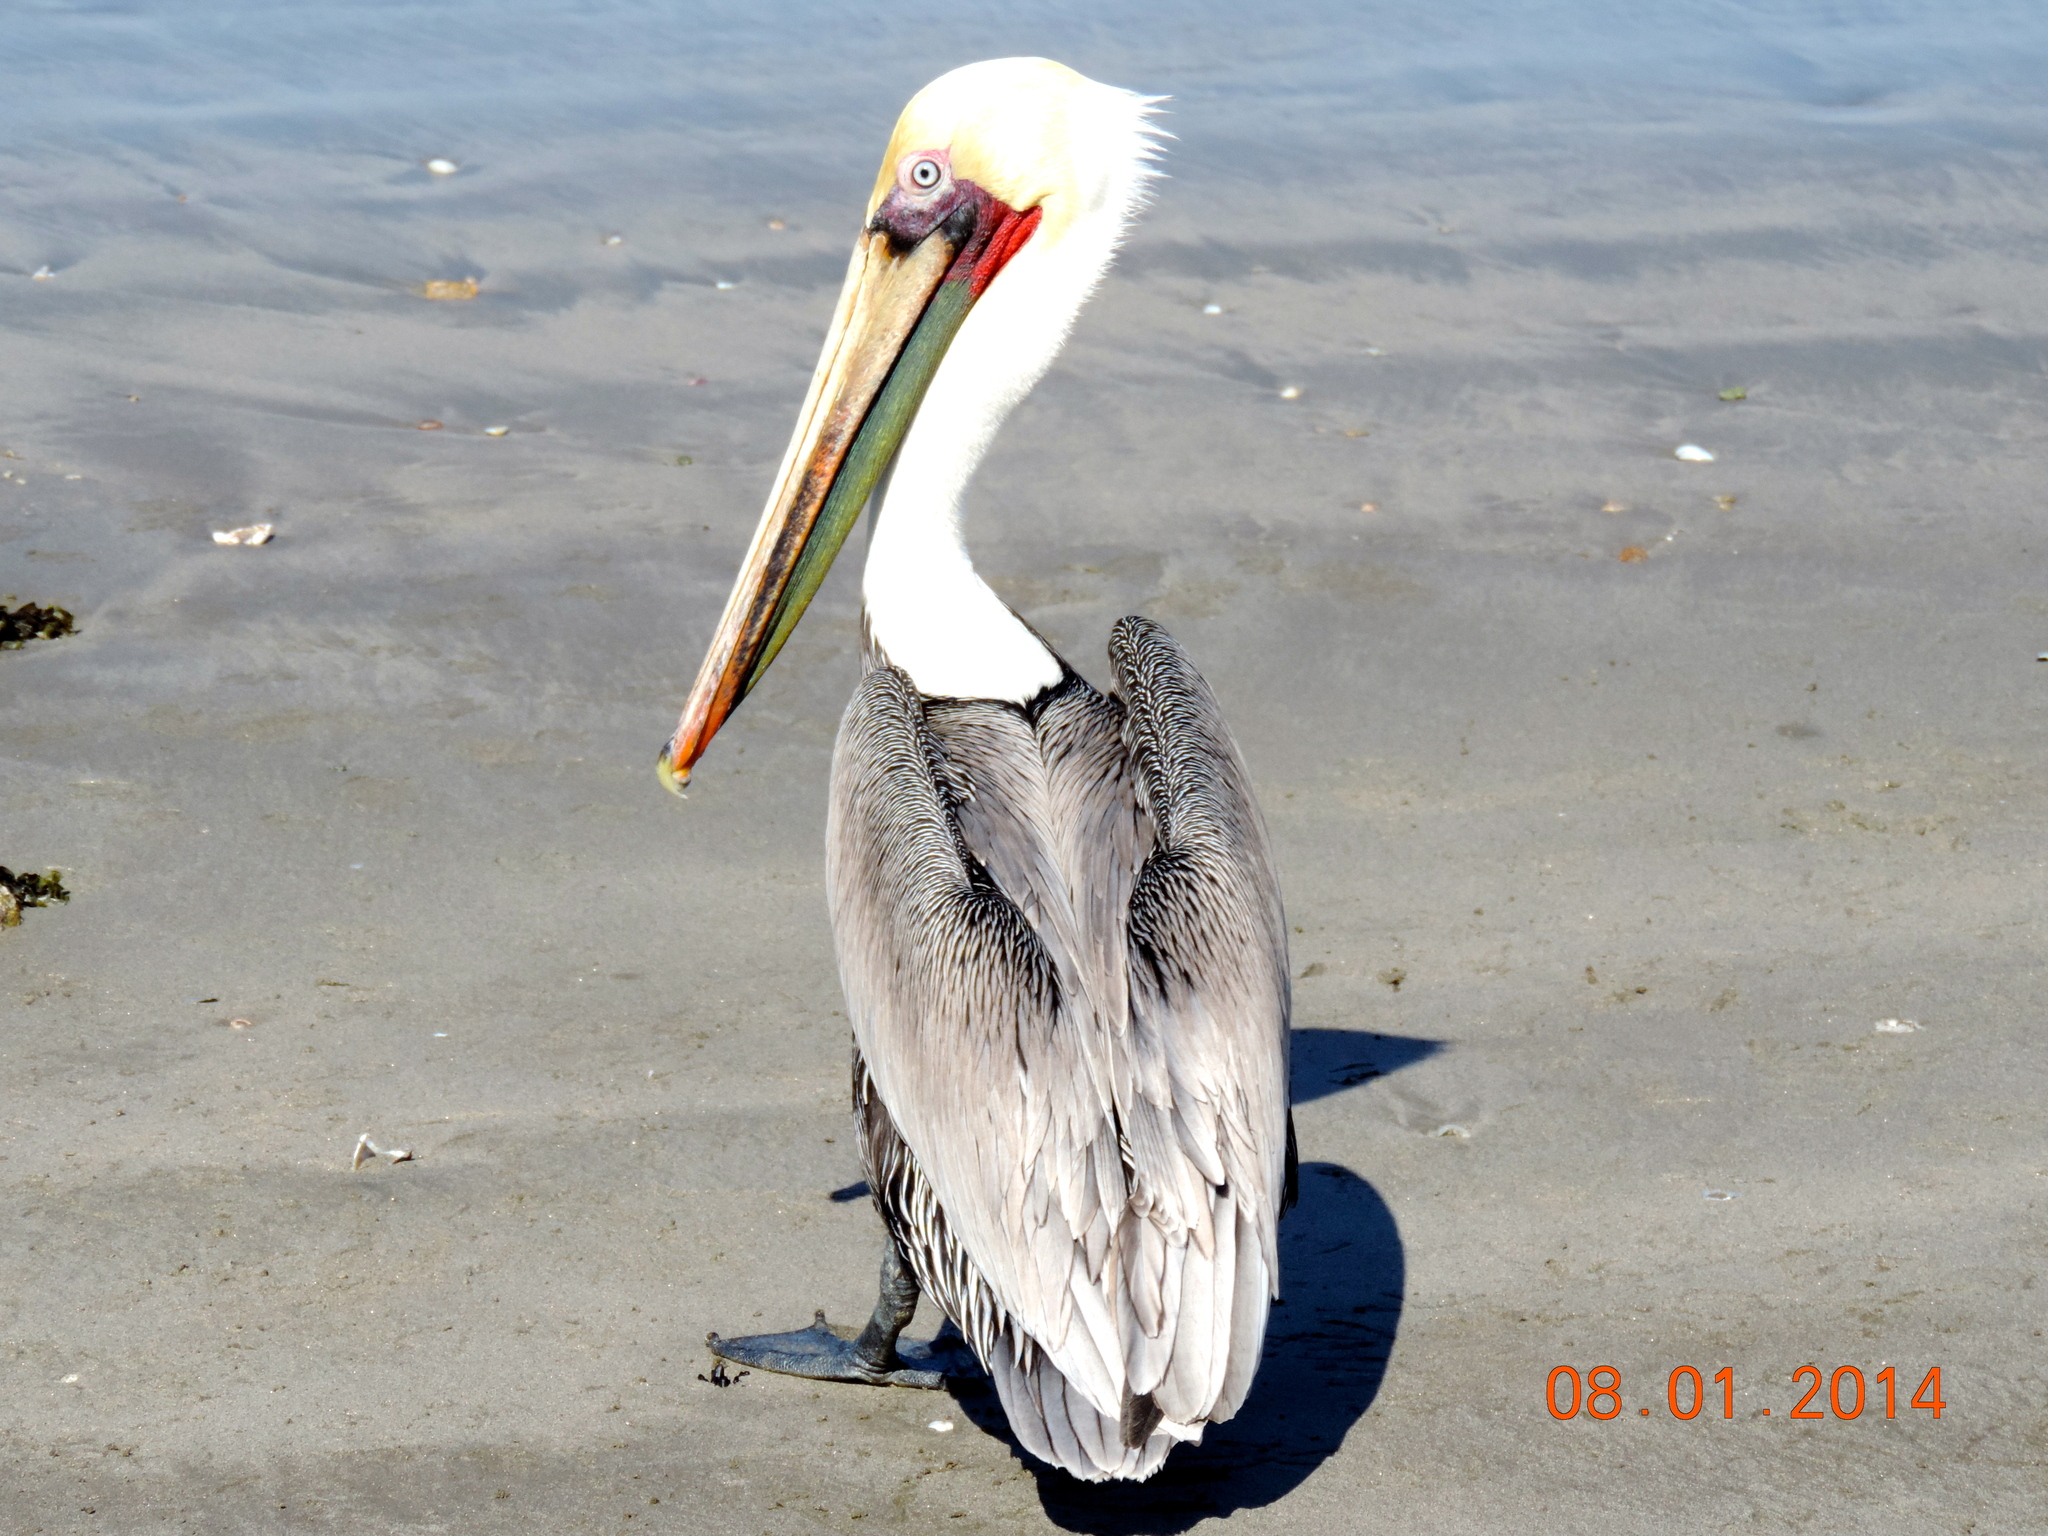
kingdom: Animalia
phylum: Chordata
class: Aves
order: Pelecaniformes
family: Pelecanidae
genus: Pelecanus
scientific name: Pelecanus occidentalis
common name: Brown pelican
